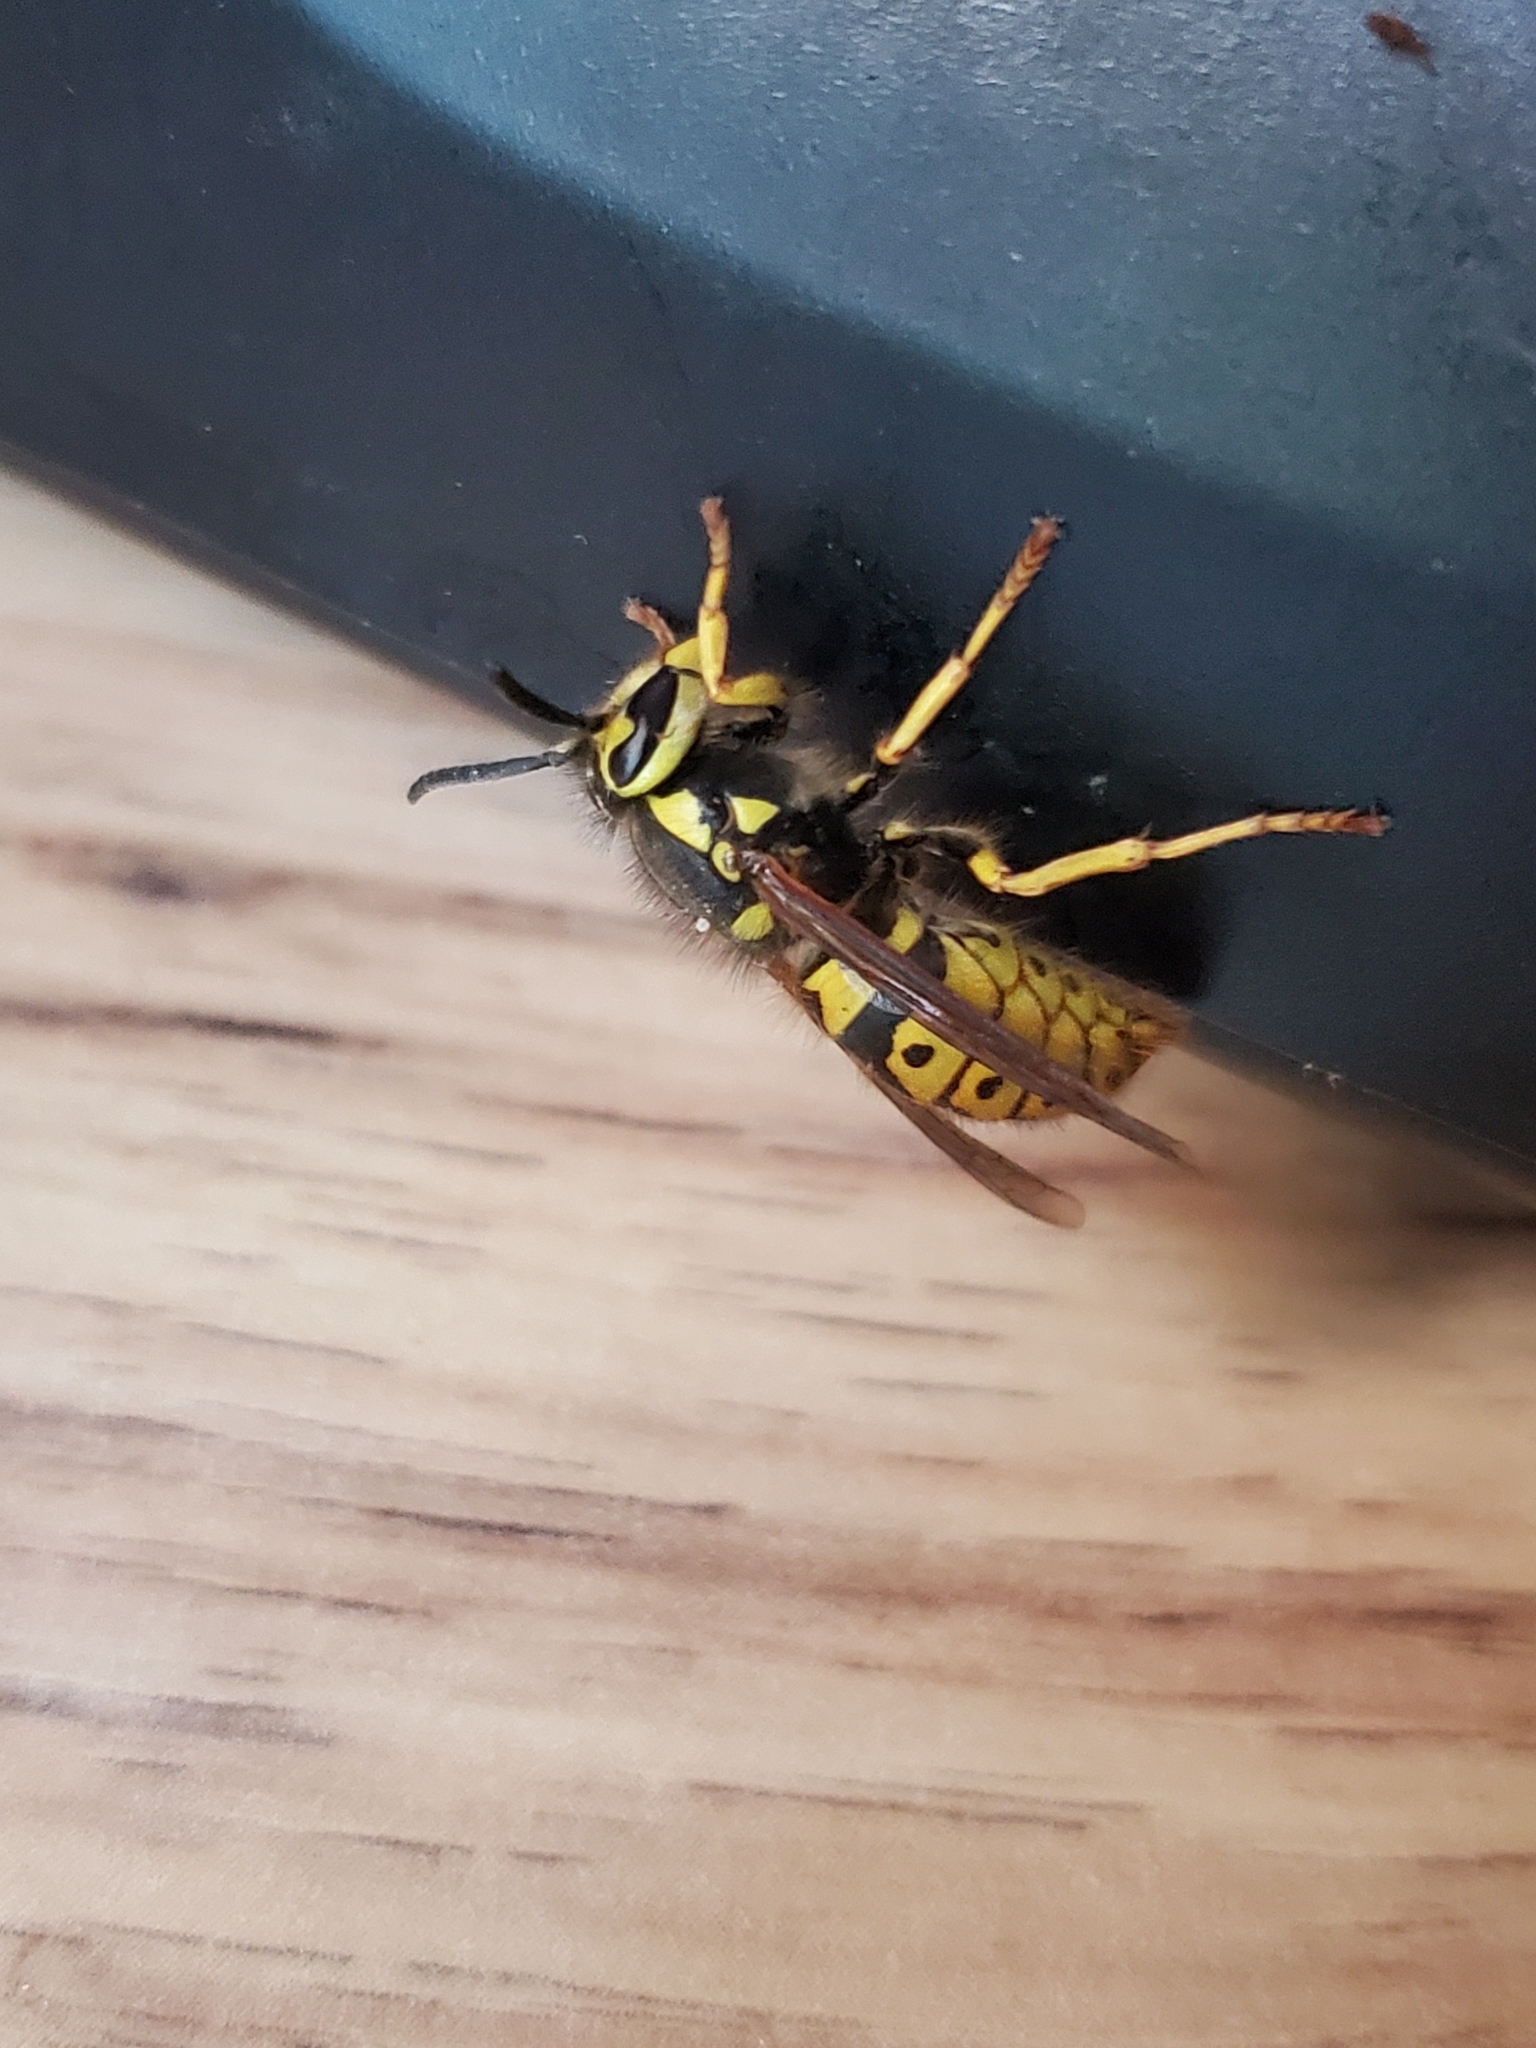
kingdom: Animalia
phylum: Arthropoda
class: Insecta
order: Hymenoptera
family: Vespidae
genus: Vespula
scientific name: Vespula pensylvanica
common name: Western yellowjacket
